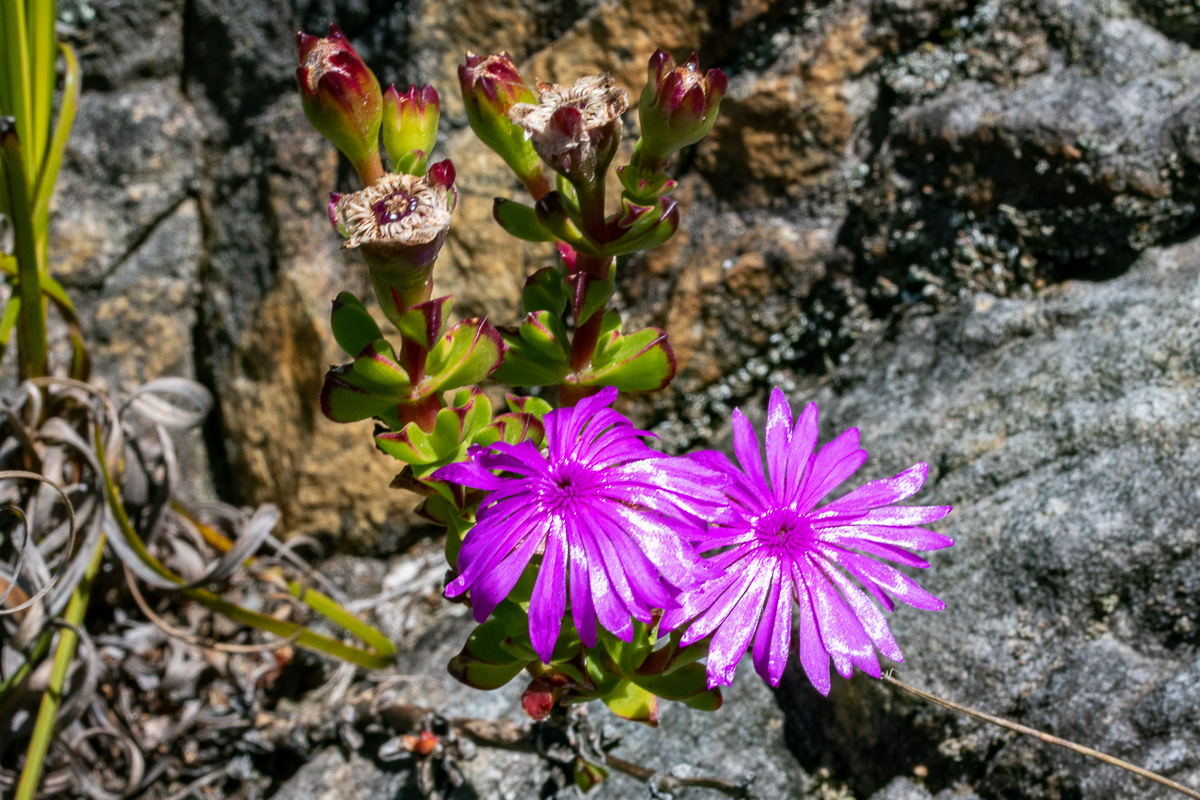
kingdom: Plantae
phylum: Tracheophyta
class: Magnoliopsida
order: Caryophyllales
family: Aizoaceae
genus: Erepsia
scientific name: Erepsia inclaudens
